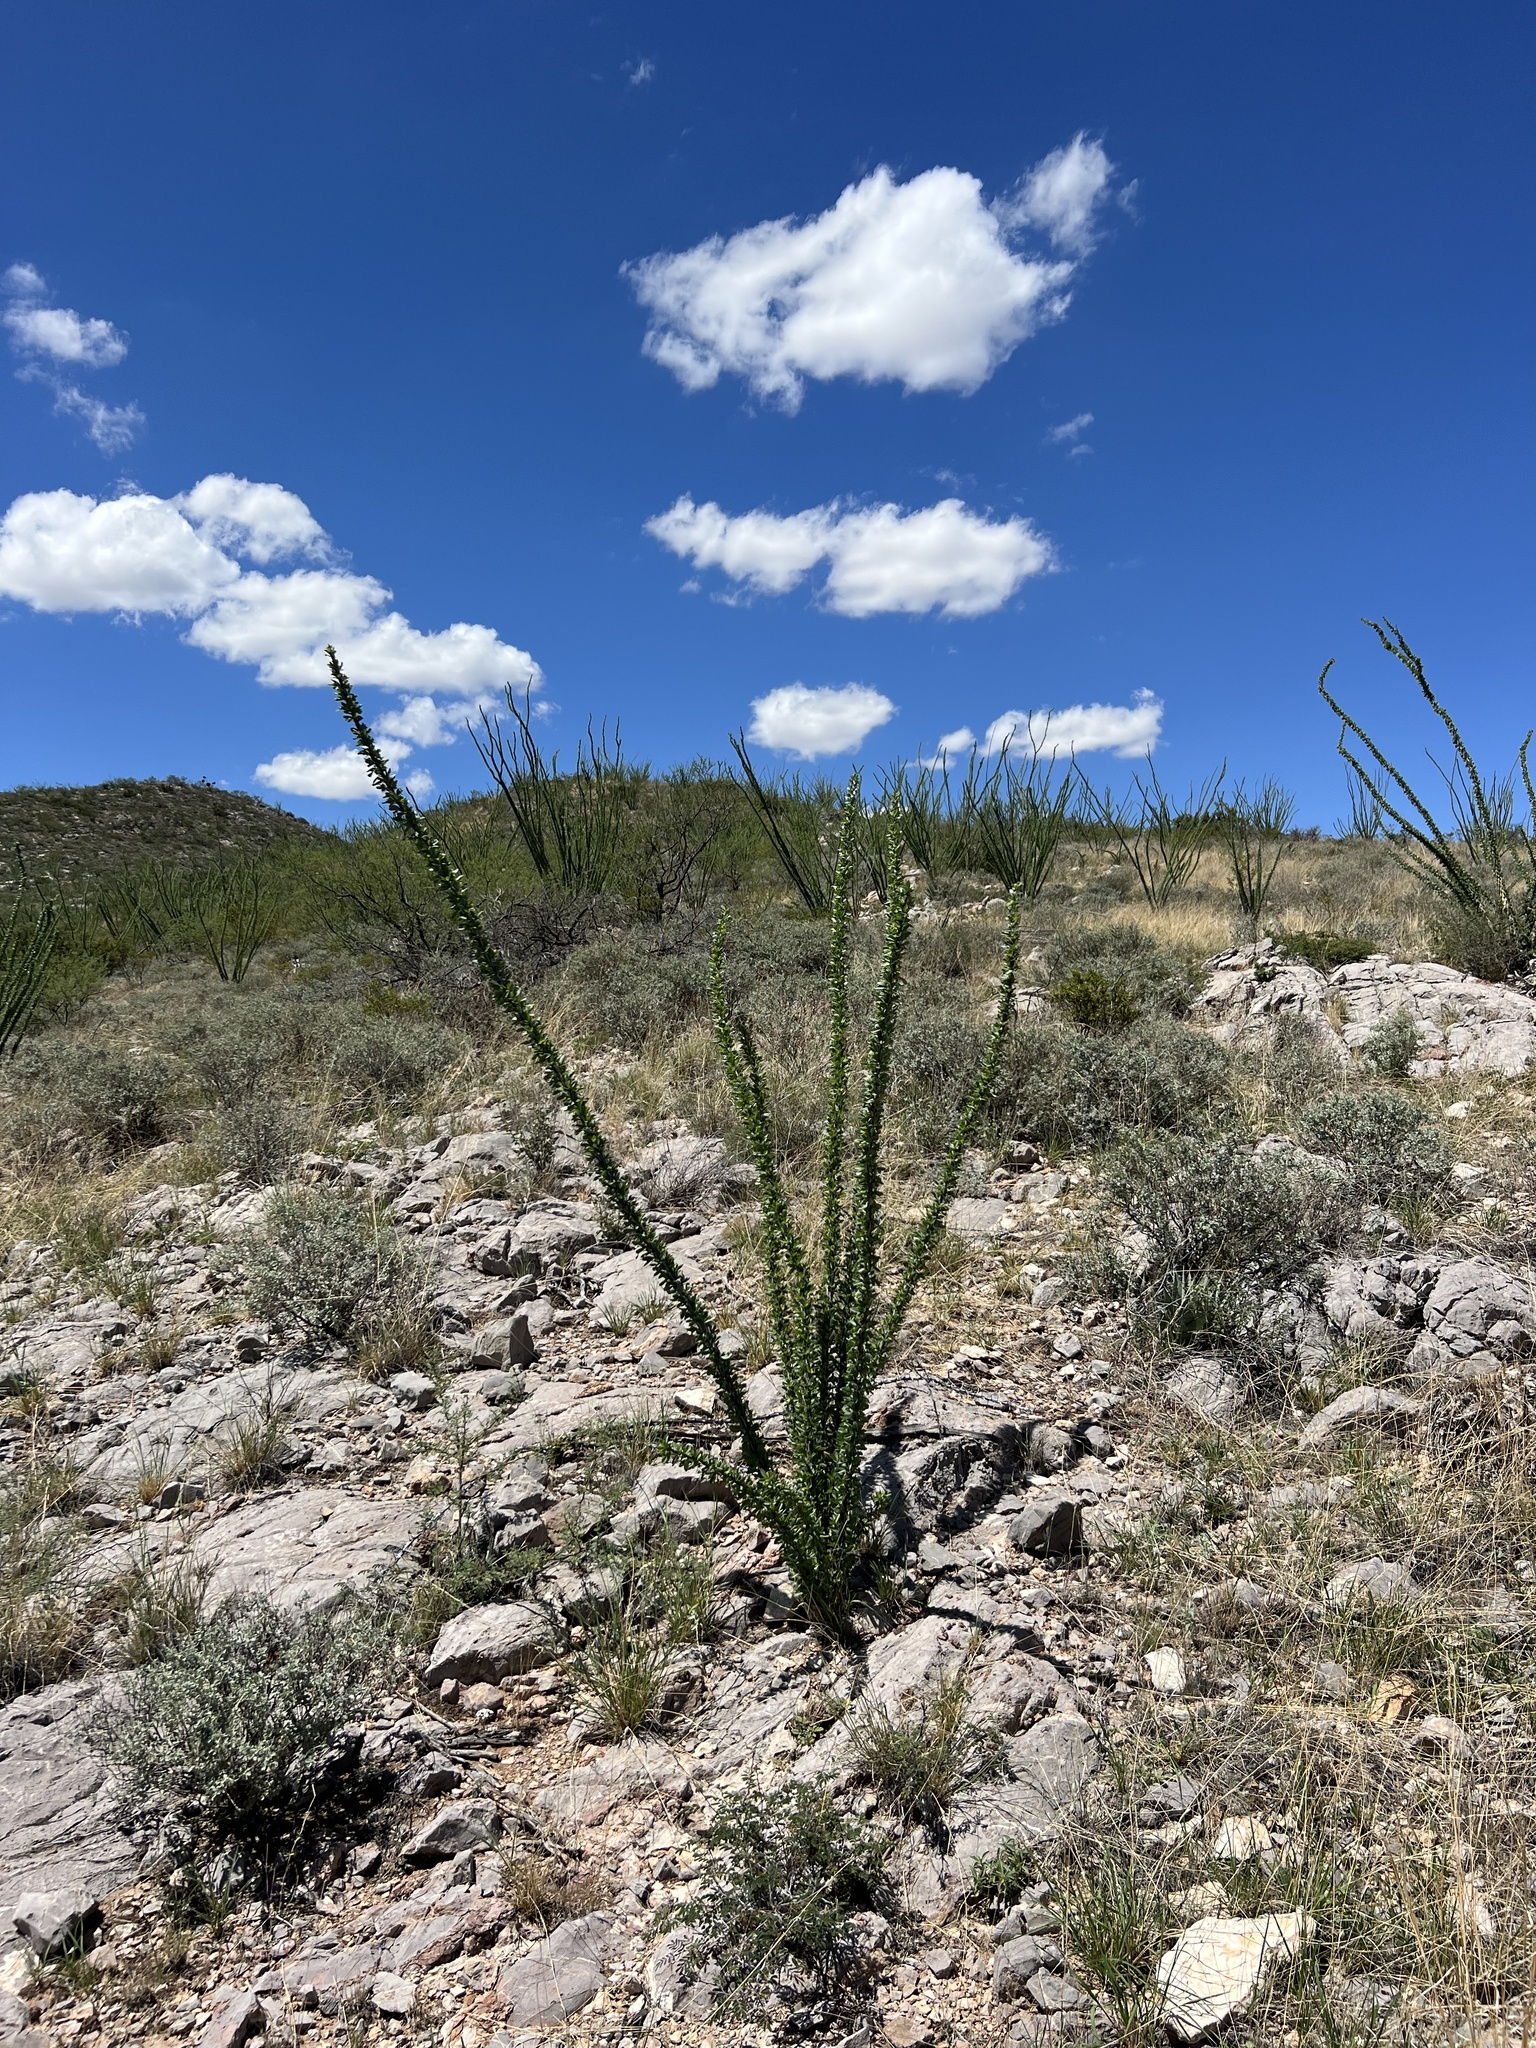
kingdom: Plantae
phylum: Tracheophyta
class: Magnoliopsida
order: Ericales
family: Fouquieriaceae
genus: Fouquieria
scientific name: Fouquieria splendens
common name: Vine-cactus
